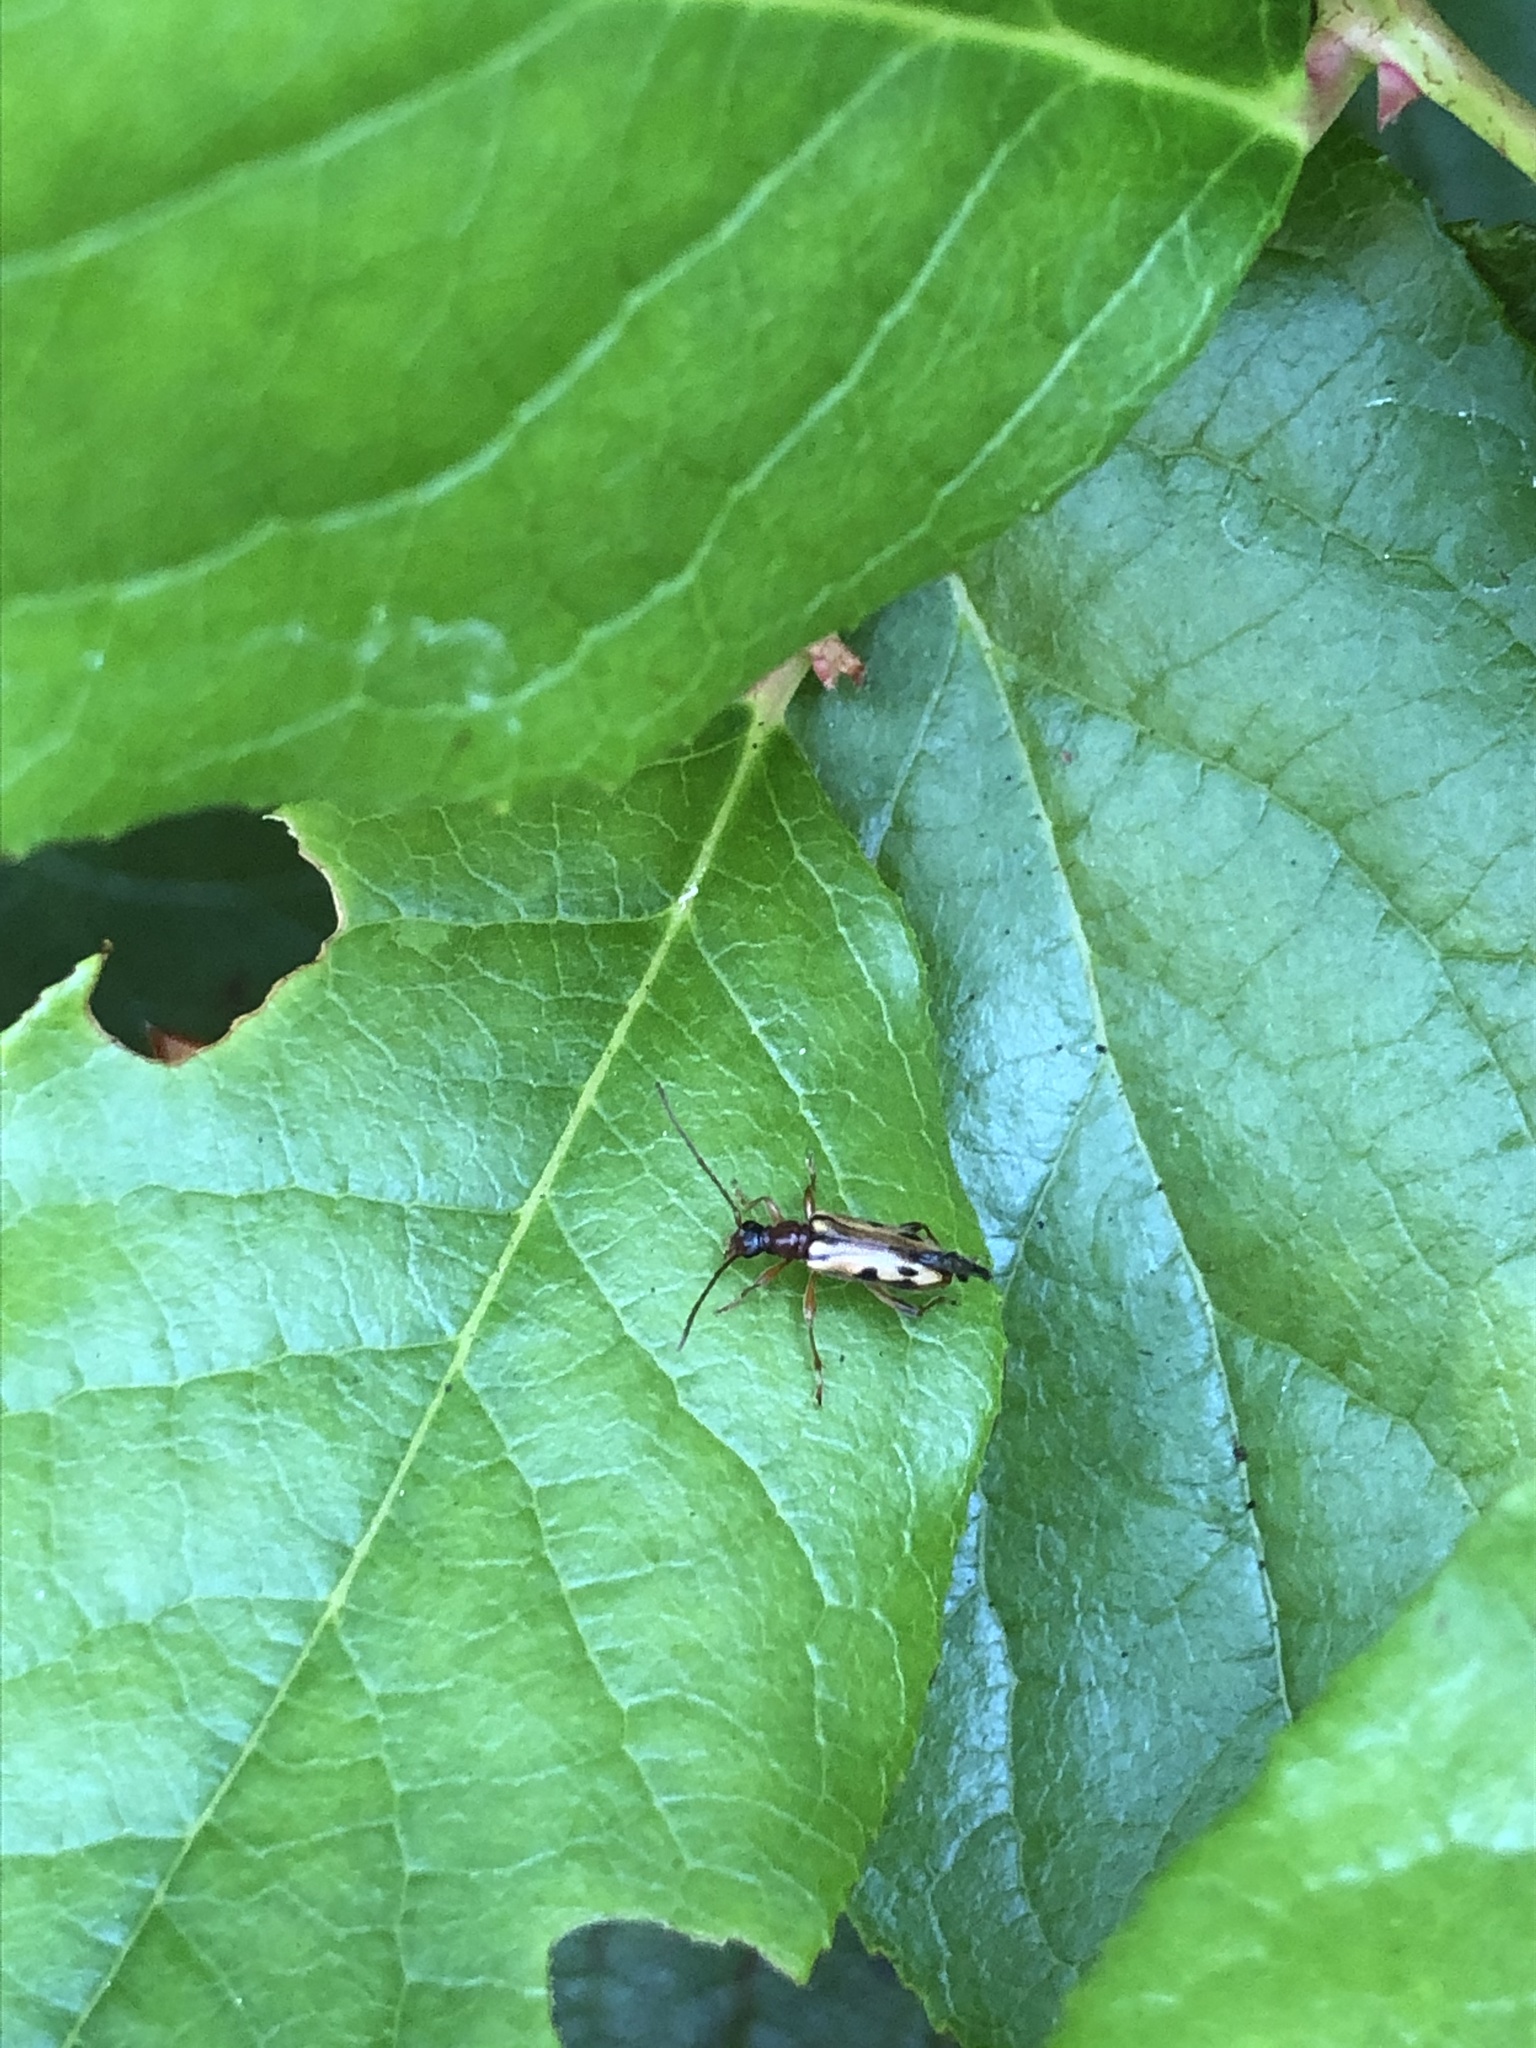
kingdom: Animalia
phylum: Arthropoda
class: Insecta
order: Coleoptera
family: Cerambycidae
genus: Pidonia
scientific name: Pidonia scripta
